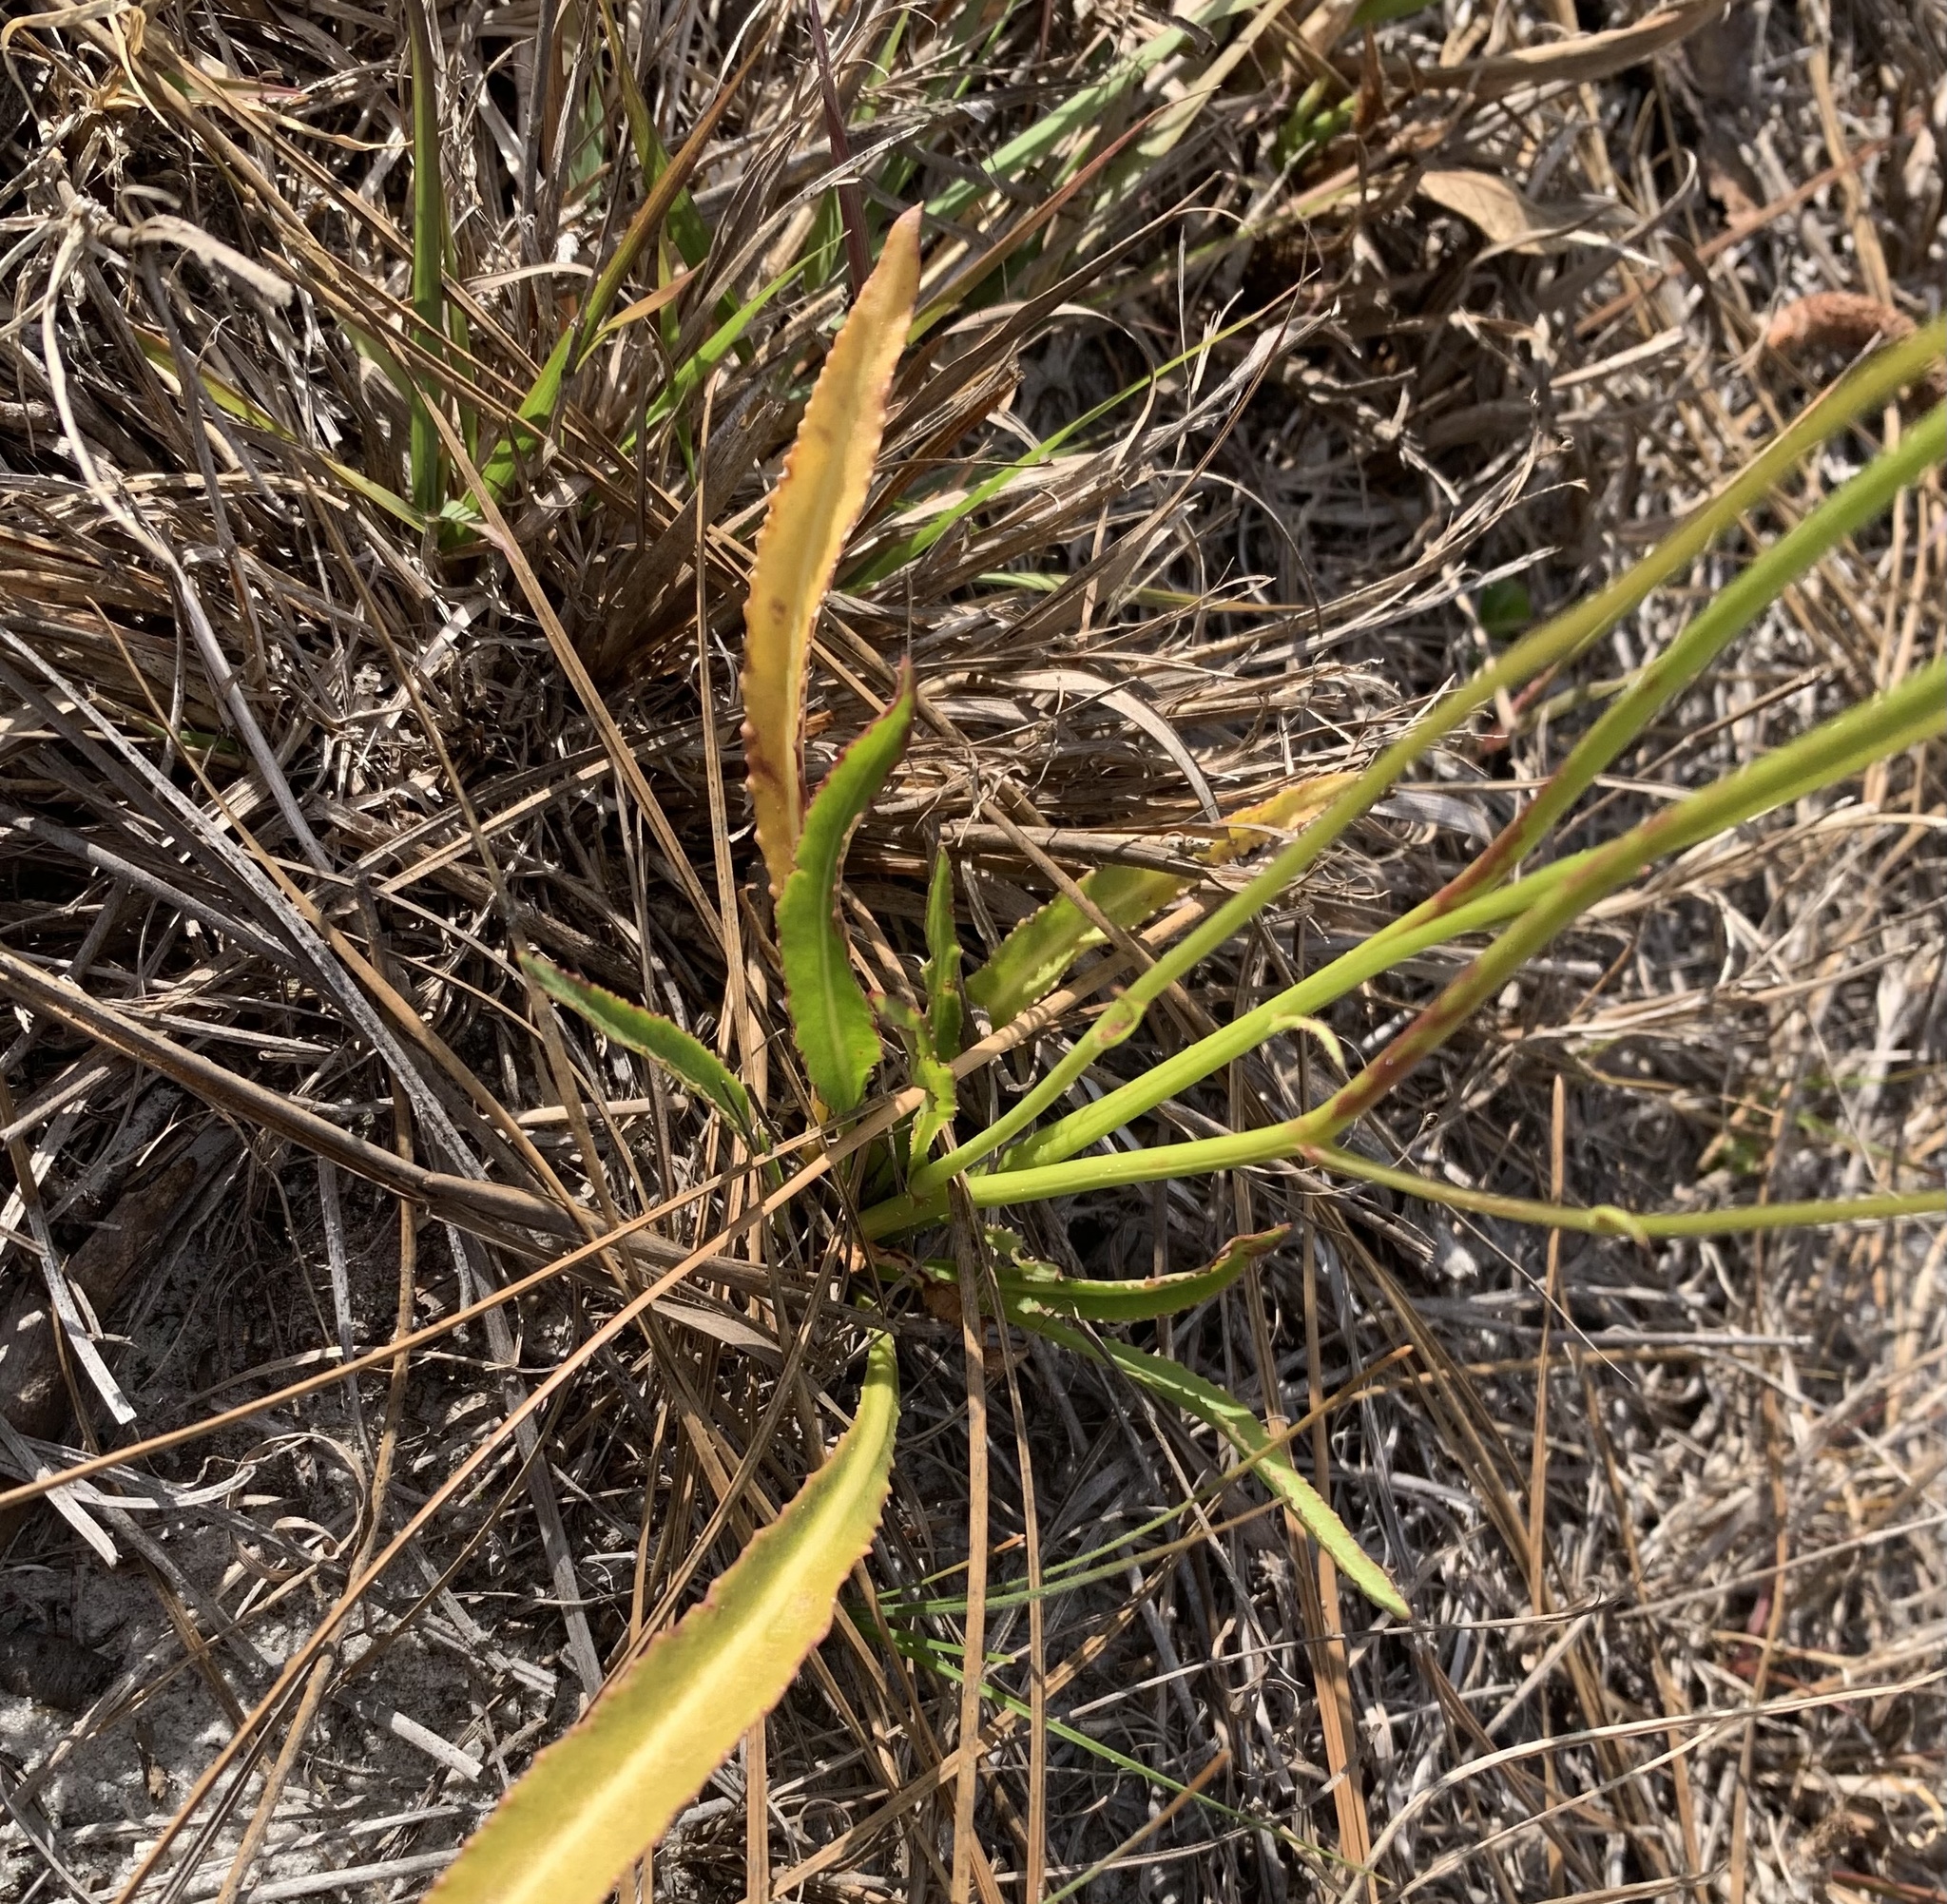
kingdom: Plantae
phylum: Tracheophyta
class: Magnoliopsida
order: Asterales
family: Campanulaceae
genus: Lobelia
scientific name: Lobelia paludosa
